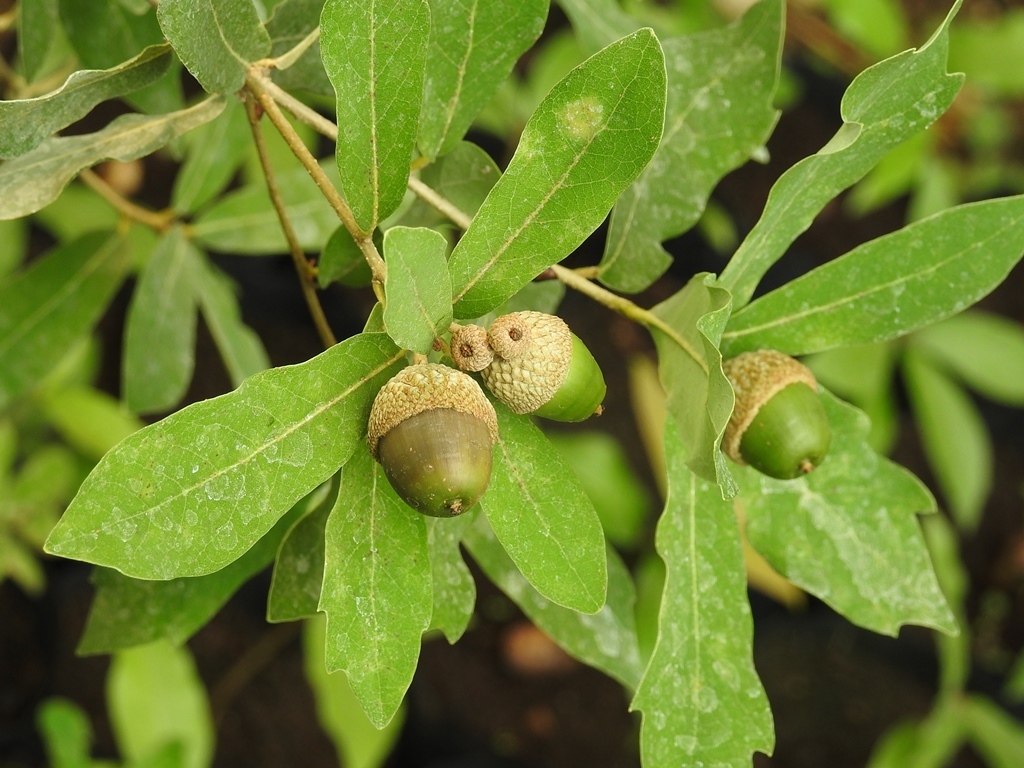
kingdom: Plantae
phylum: Tracheophyta
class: Magnoliopsida
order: Fagales
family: Fagaceae
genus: Quercus
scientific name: Quercus sebifera
